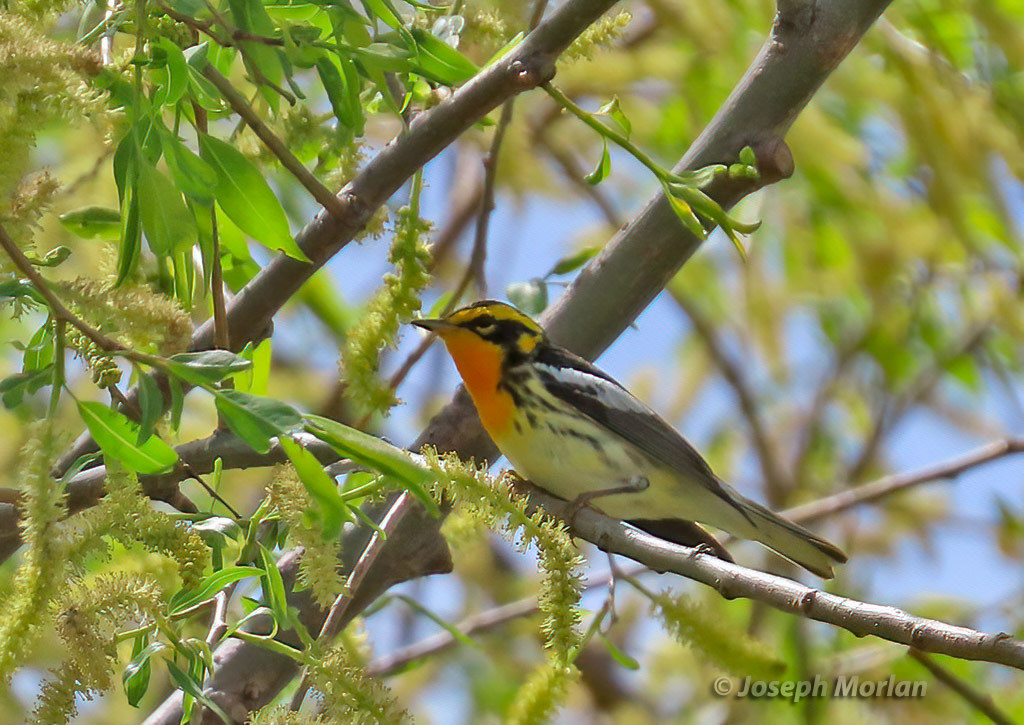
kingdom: Animalia
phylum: Chordata
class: Aves
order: Passeriformes
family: Parulidae
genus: Setophaga
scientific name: Setophaga fusca
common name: Blackburnian warbler
